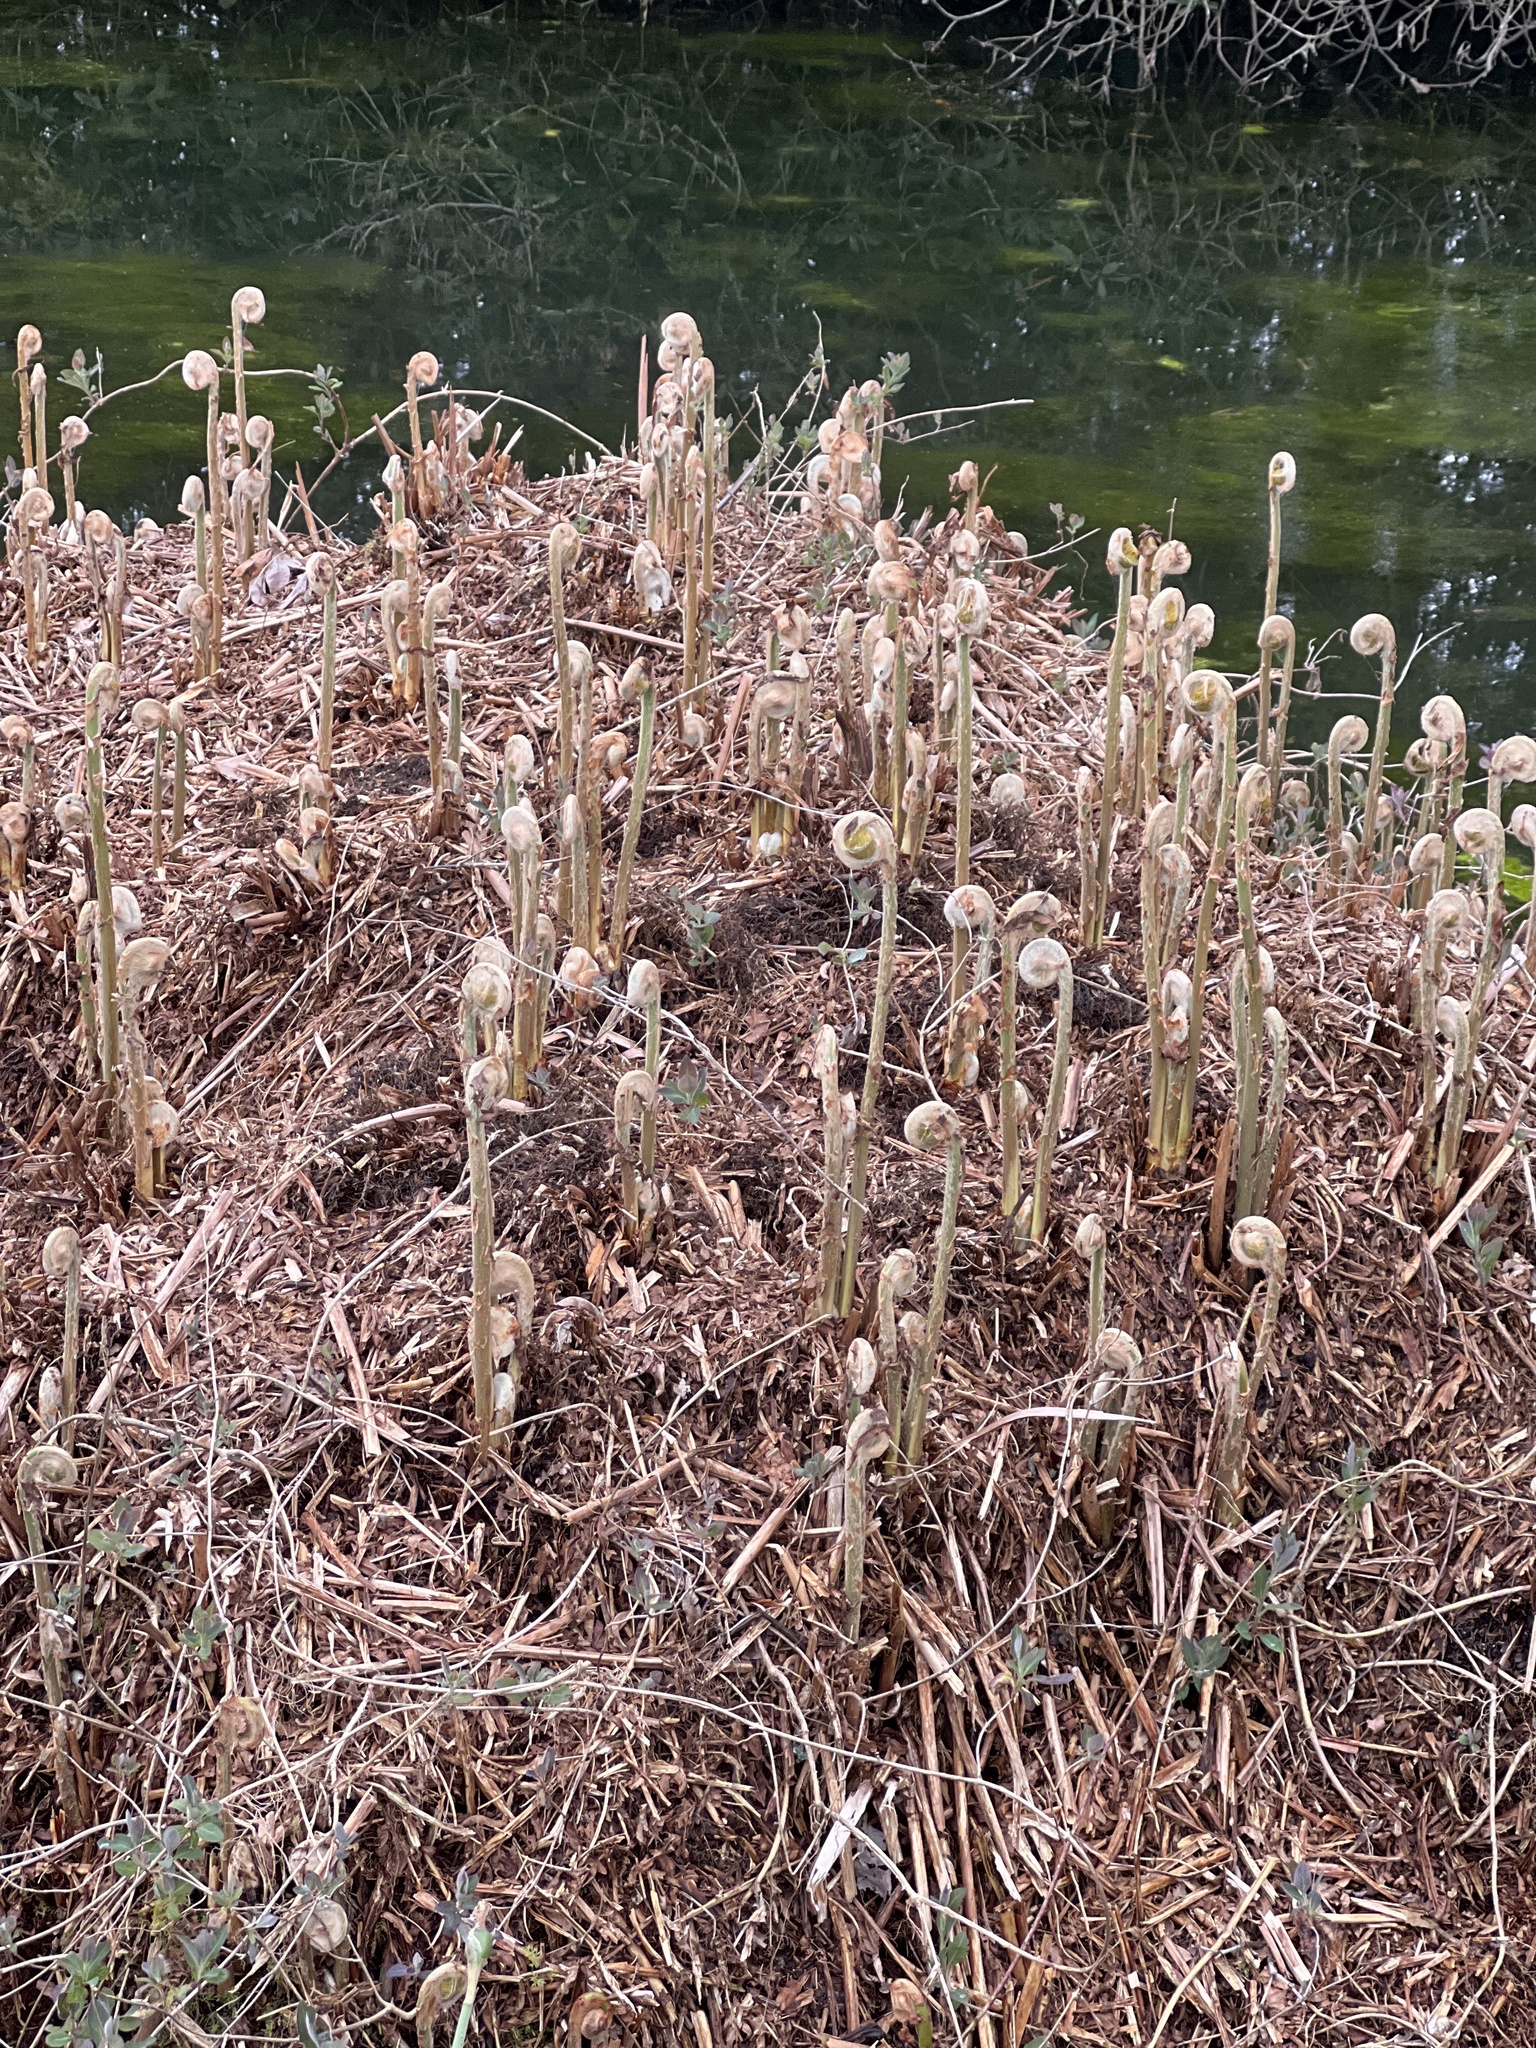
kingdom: Plantae
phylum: Tracheophyta
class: Polypodiopsida
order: Osmundales
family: Osmundaceae
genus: Osmunda
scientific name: Osmunda regalis
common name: Royal fern
